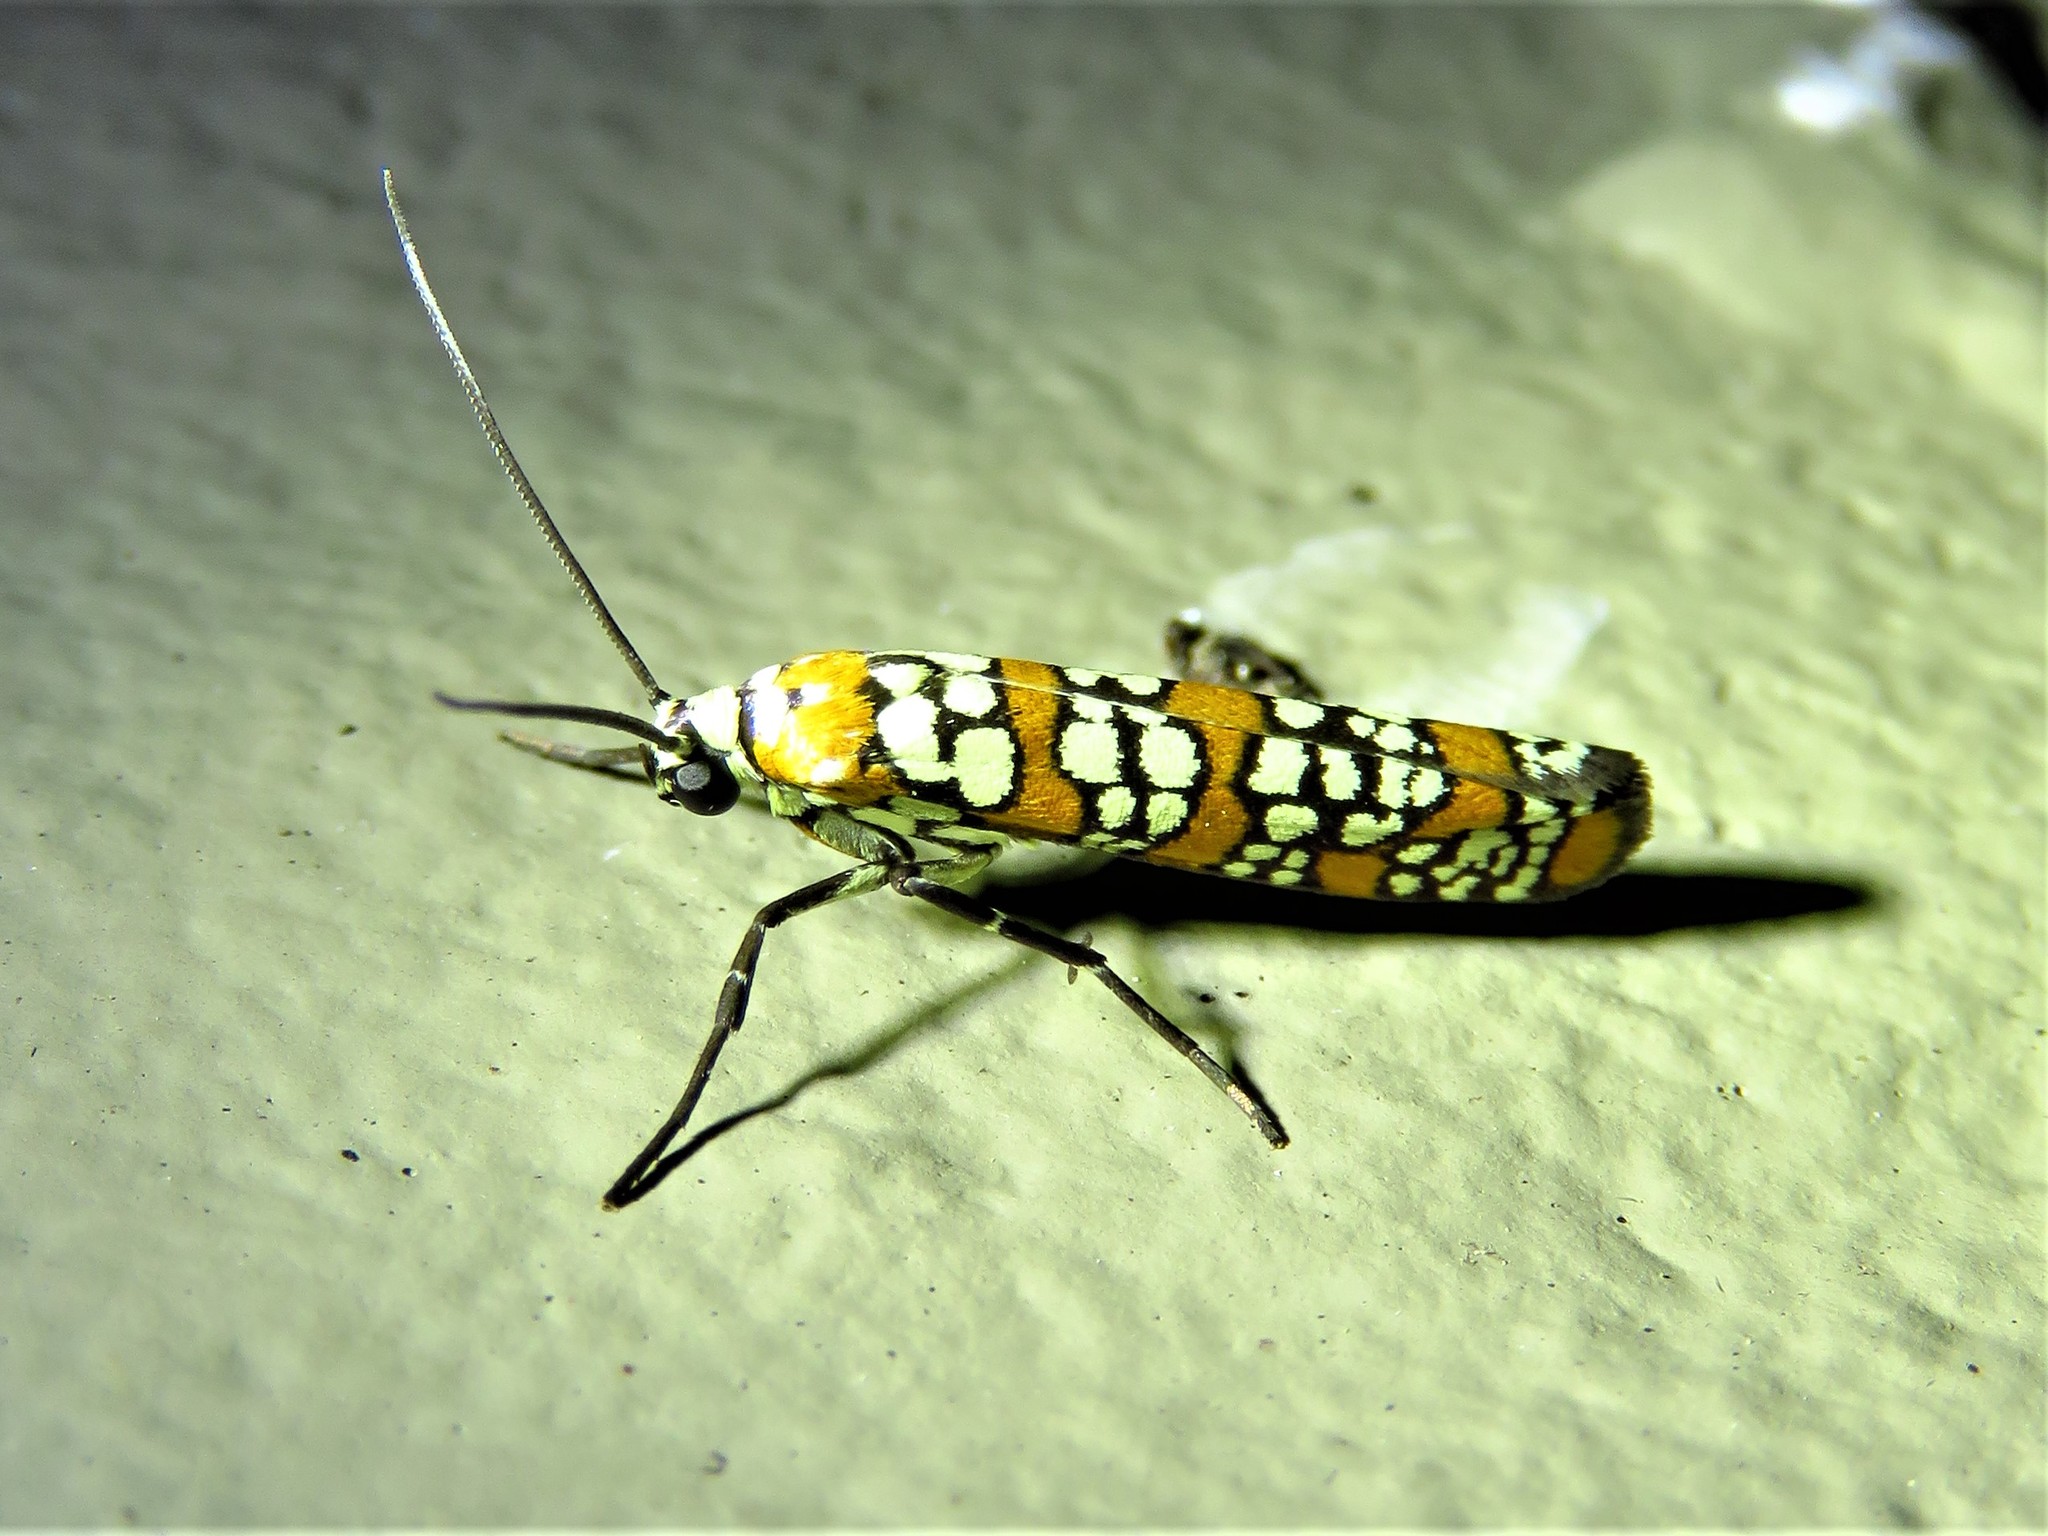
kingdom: Animalia
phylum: Arthropoda
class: Insecta
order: Lepidoptera
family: Attevidae
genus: Atteva
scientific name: Atteva punctella
